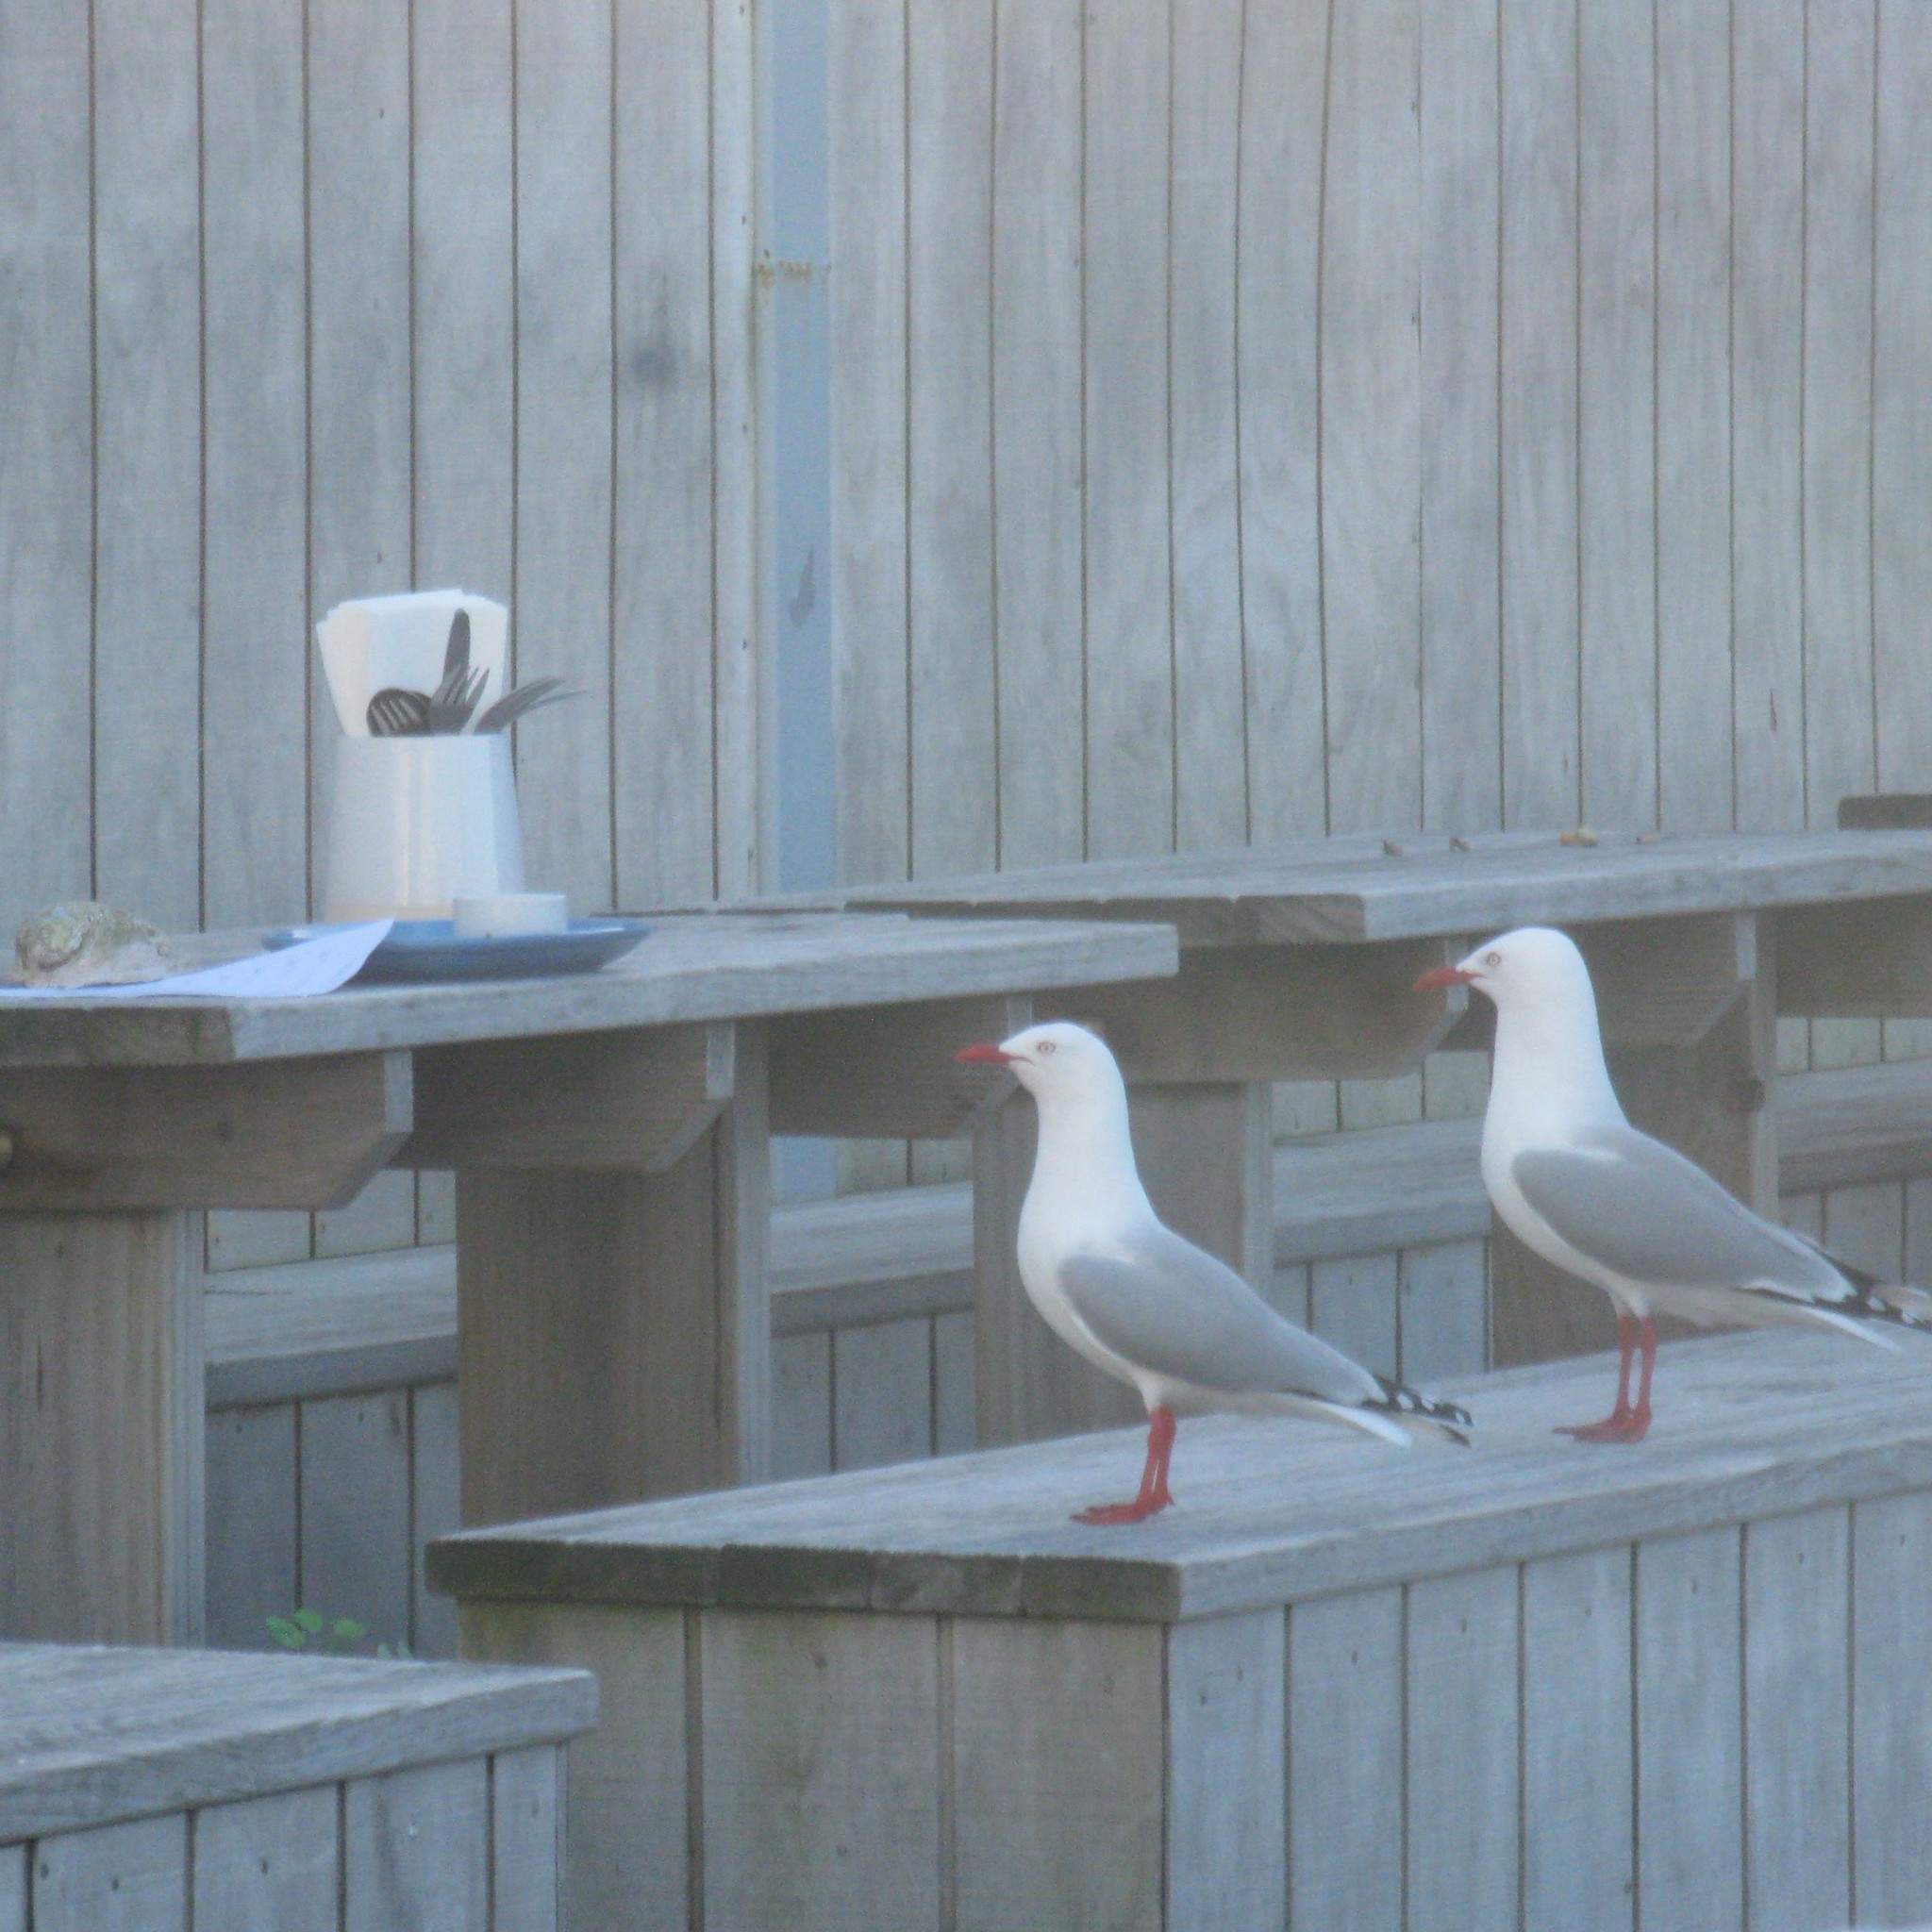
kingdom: Animalia
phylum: Chordata
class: Aves
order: Charadriiformes
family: Laridae
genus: Chroicocephalus
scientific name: Chroicocephalus novaehollandiae
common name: Silver gull
